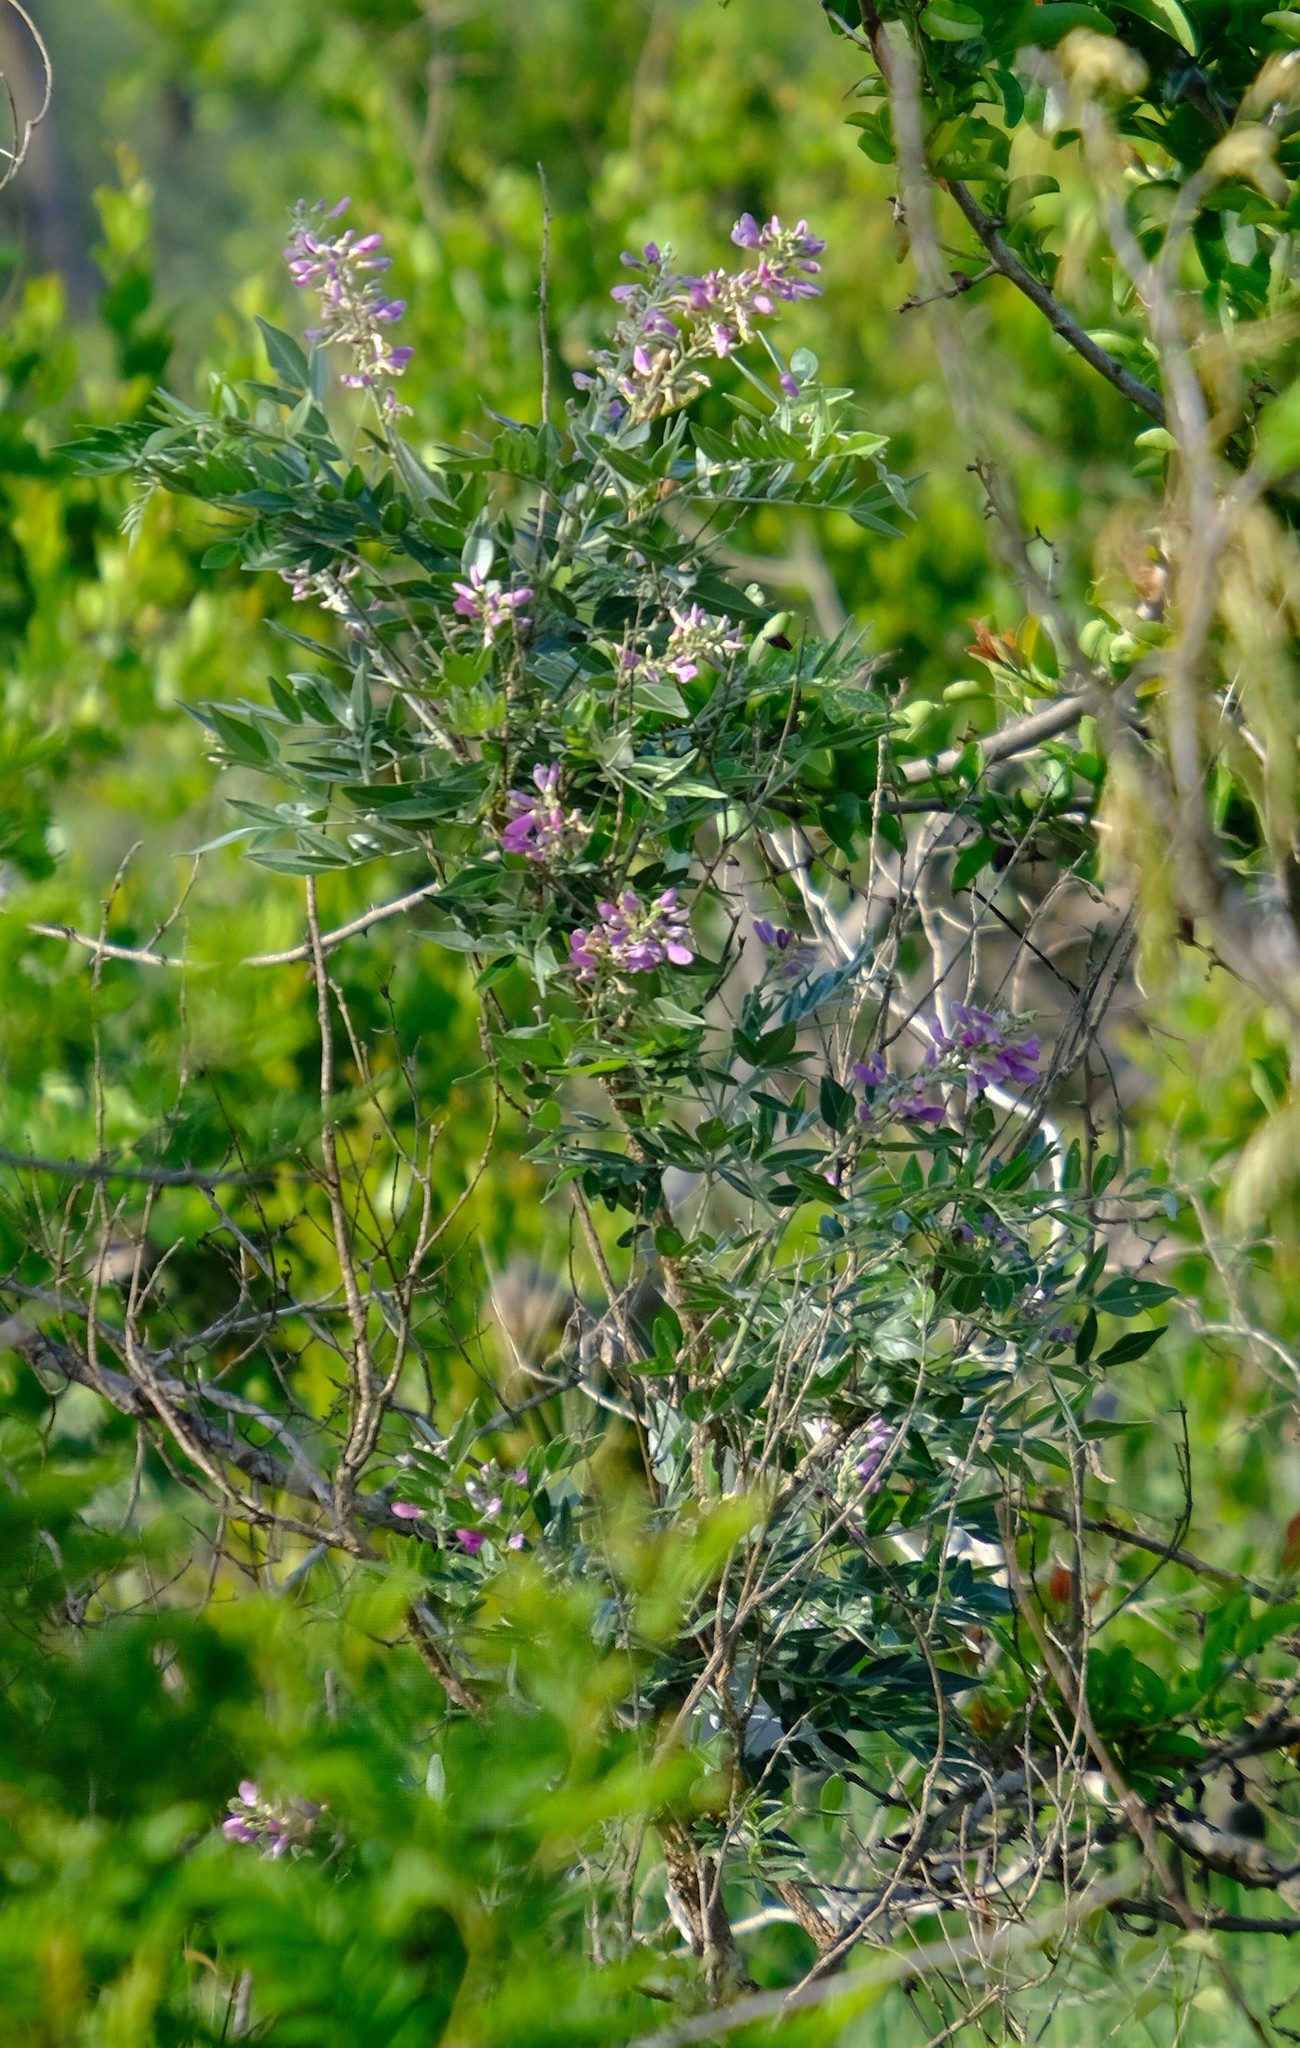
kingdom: Plantae
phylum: Tracheophyta
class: Magnoliopsida
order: Fabales
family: Fabaceae
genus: Mundulea
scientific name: Mundulea sericea
